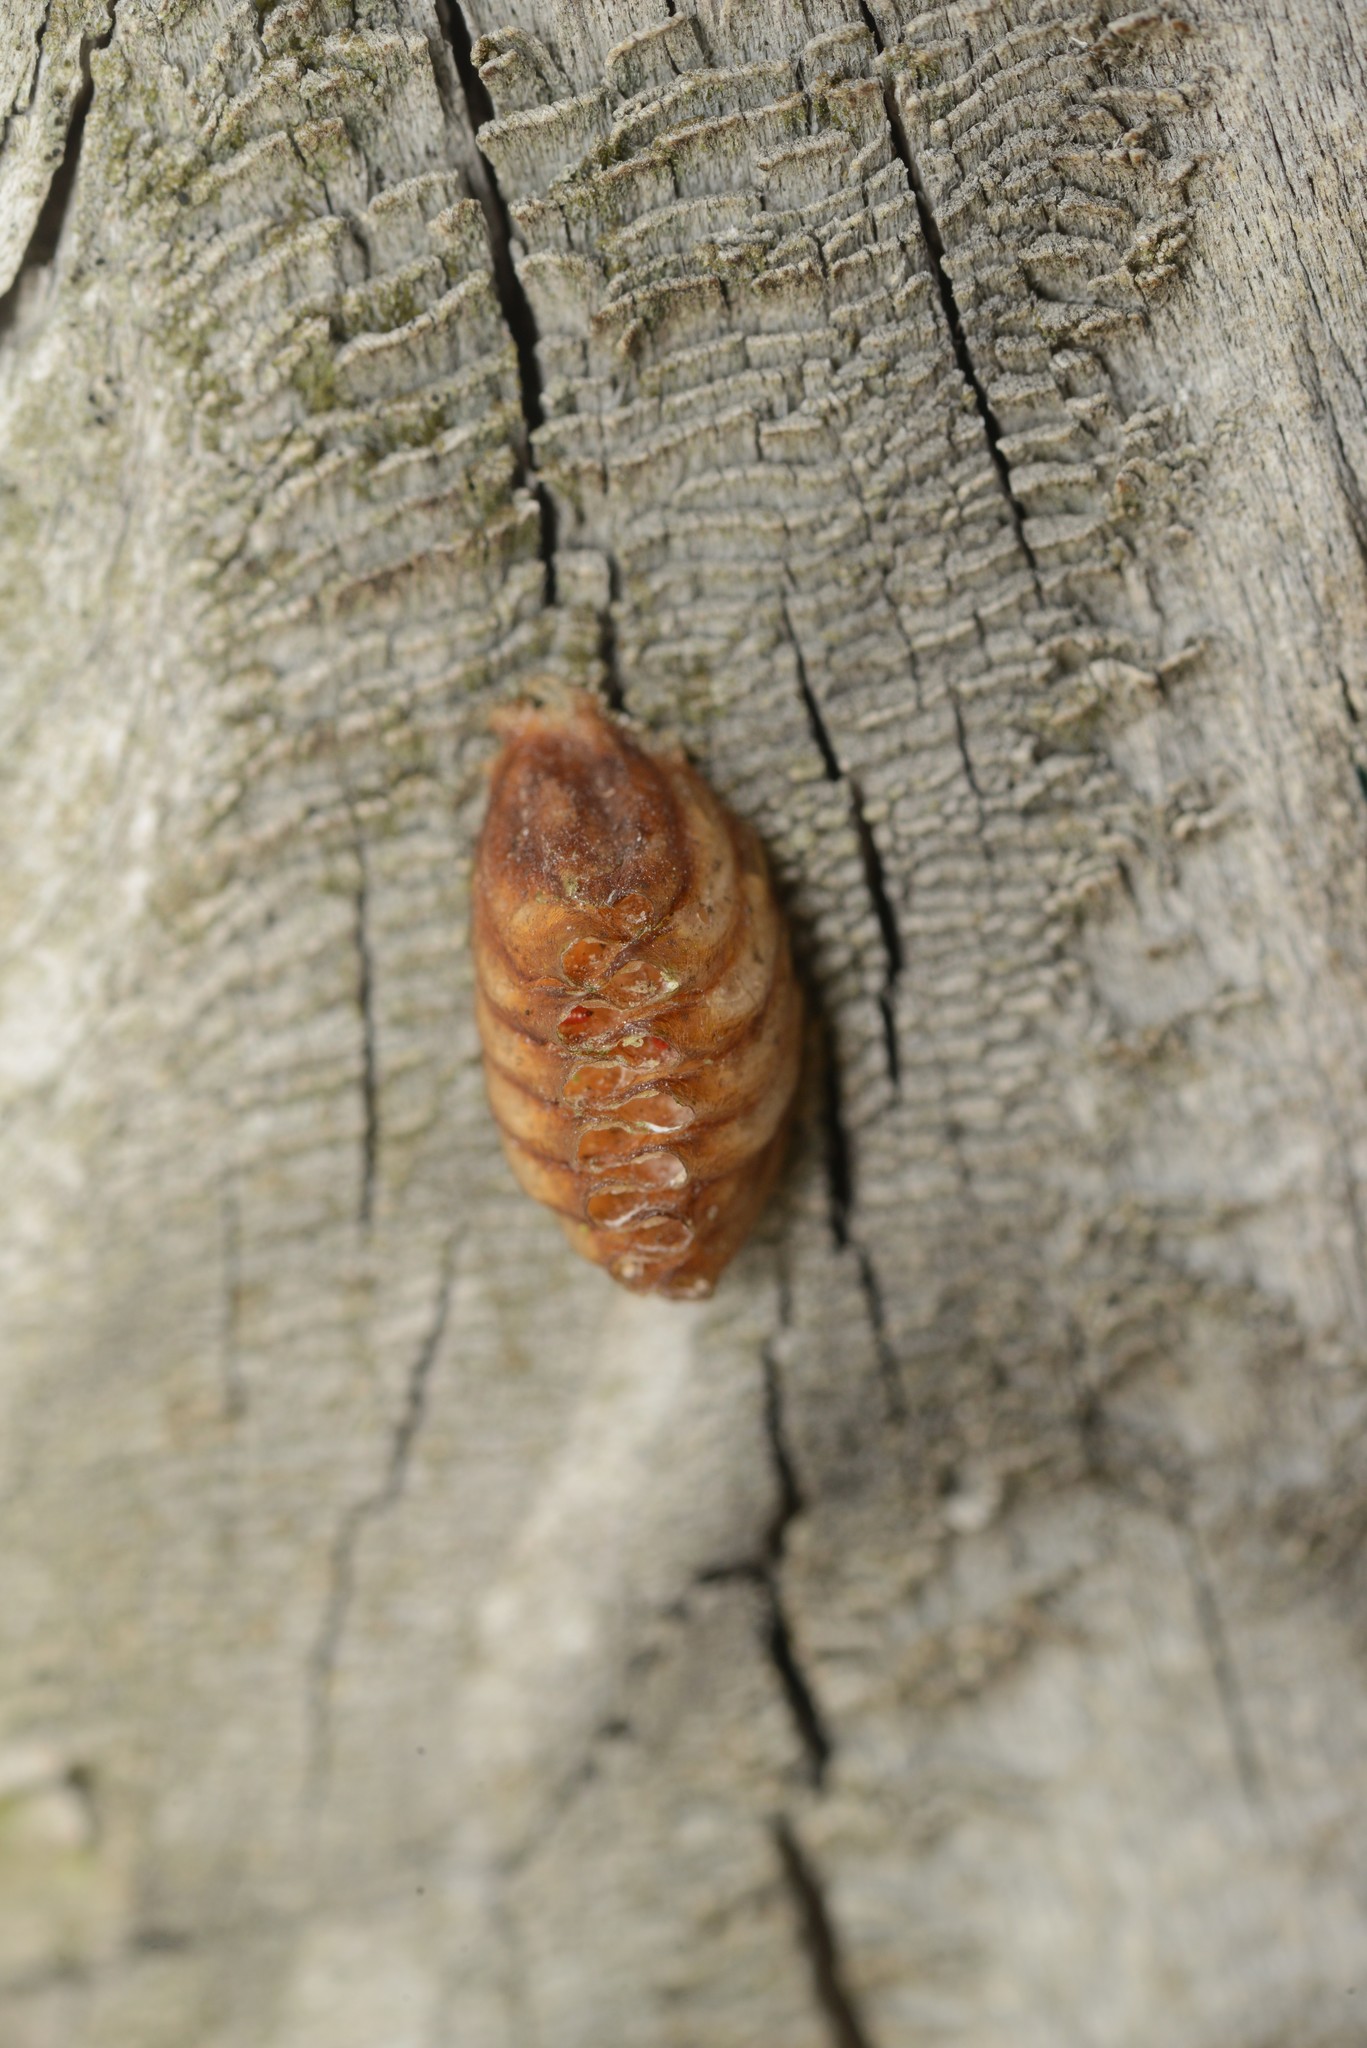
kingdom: Animalia
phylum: Arthropoda
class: Insecta
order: Mantodea
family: Mantidae
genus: Orthodera
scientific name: Orthodera novaezealandiae
